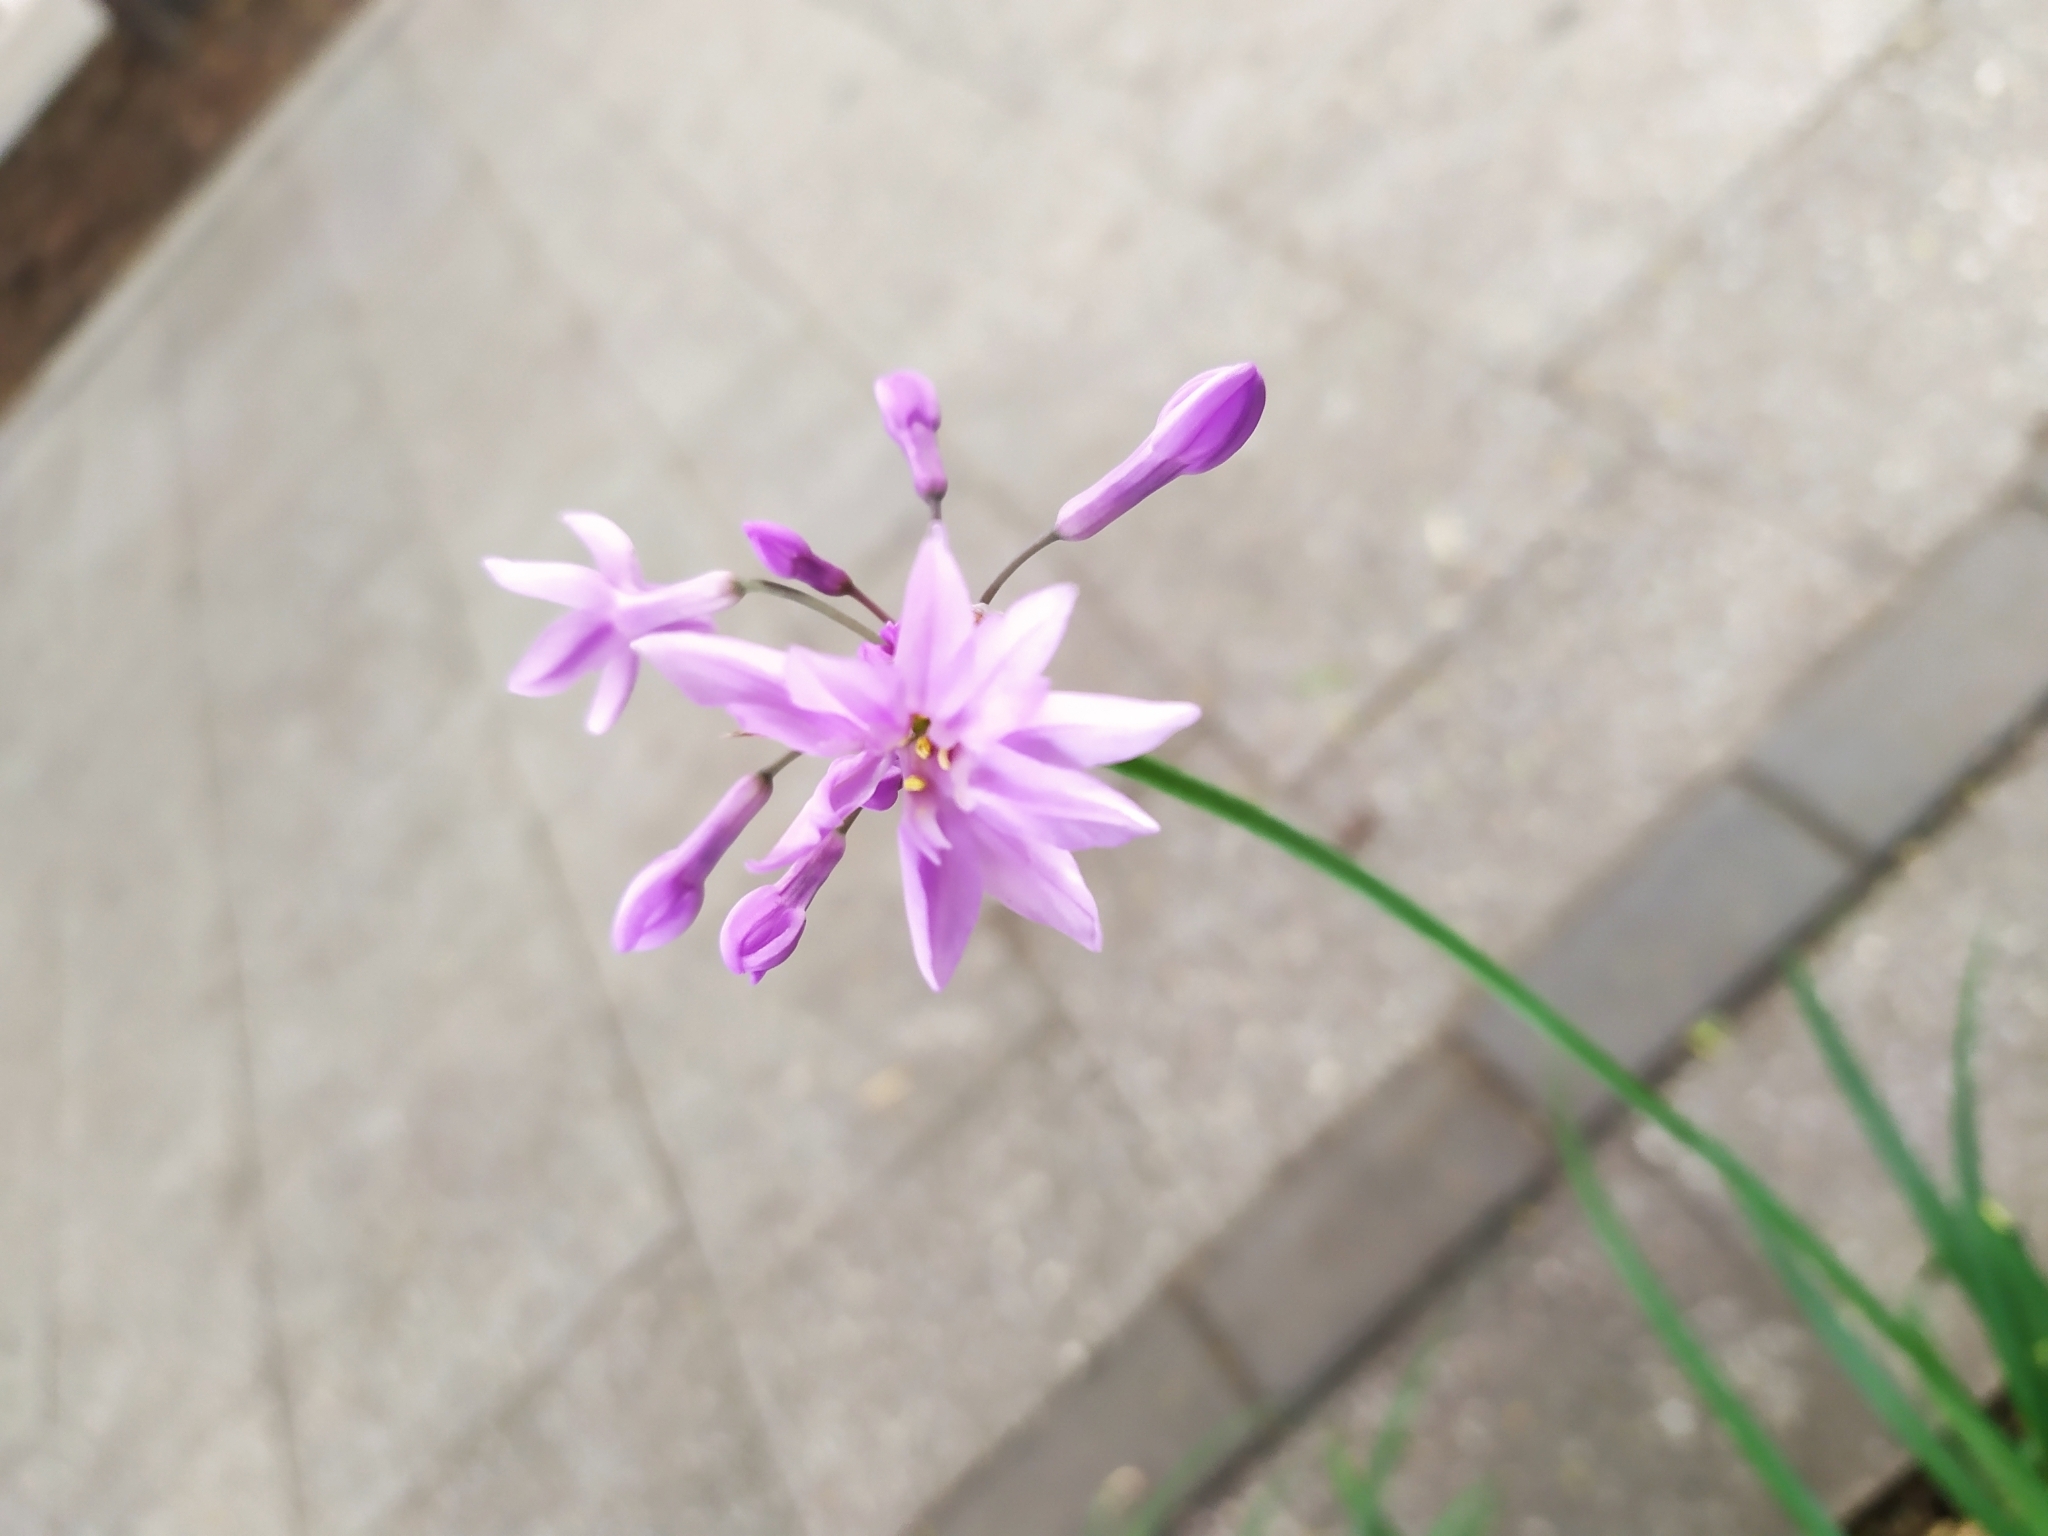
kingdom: Plantae
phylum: Tracheophyta
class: Liliopsida
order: Asparagales
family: Amaryllidaceae
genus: Tulbaghia
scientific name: Tulbaghia violacea
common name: Society garlic
